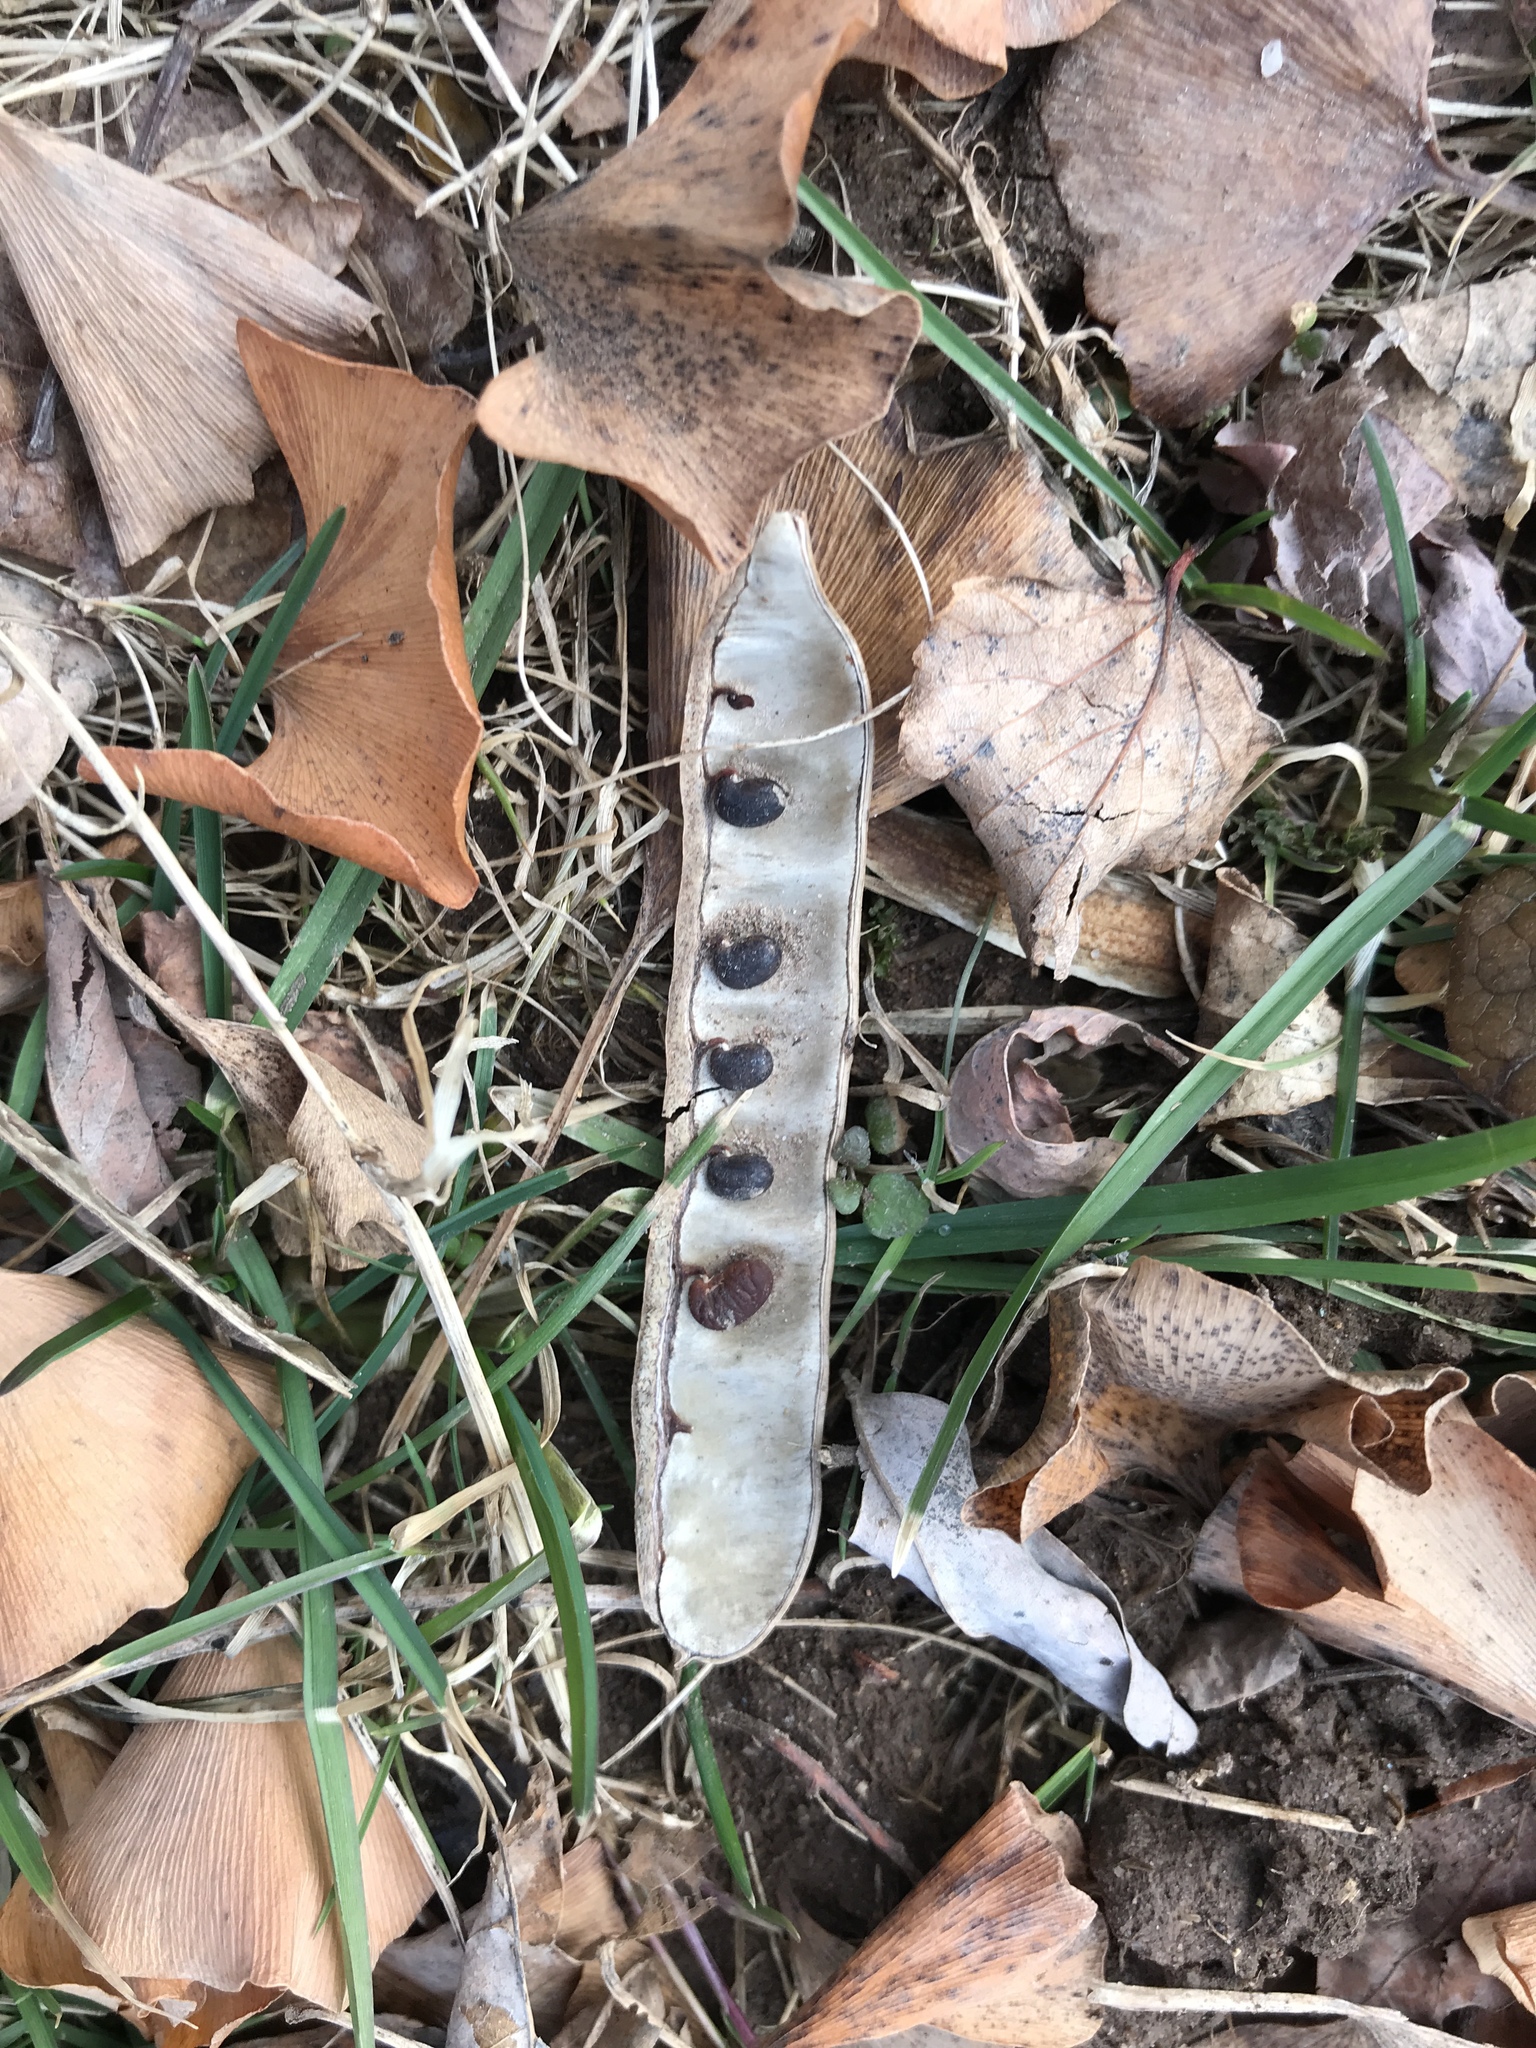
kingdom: Plantae
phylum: Tracheophyta
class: Magnoliopsida
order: Fabales
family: Fabaceae
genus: Robinia
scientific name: Robinia pseudoacacia
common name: Black locust
